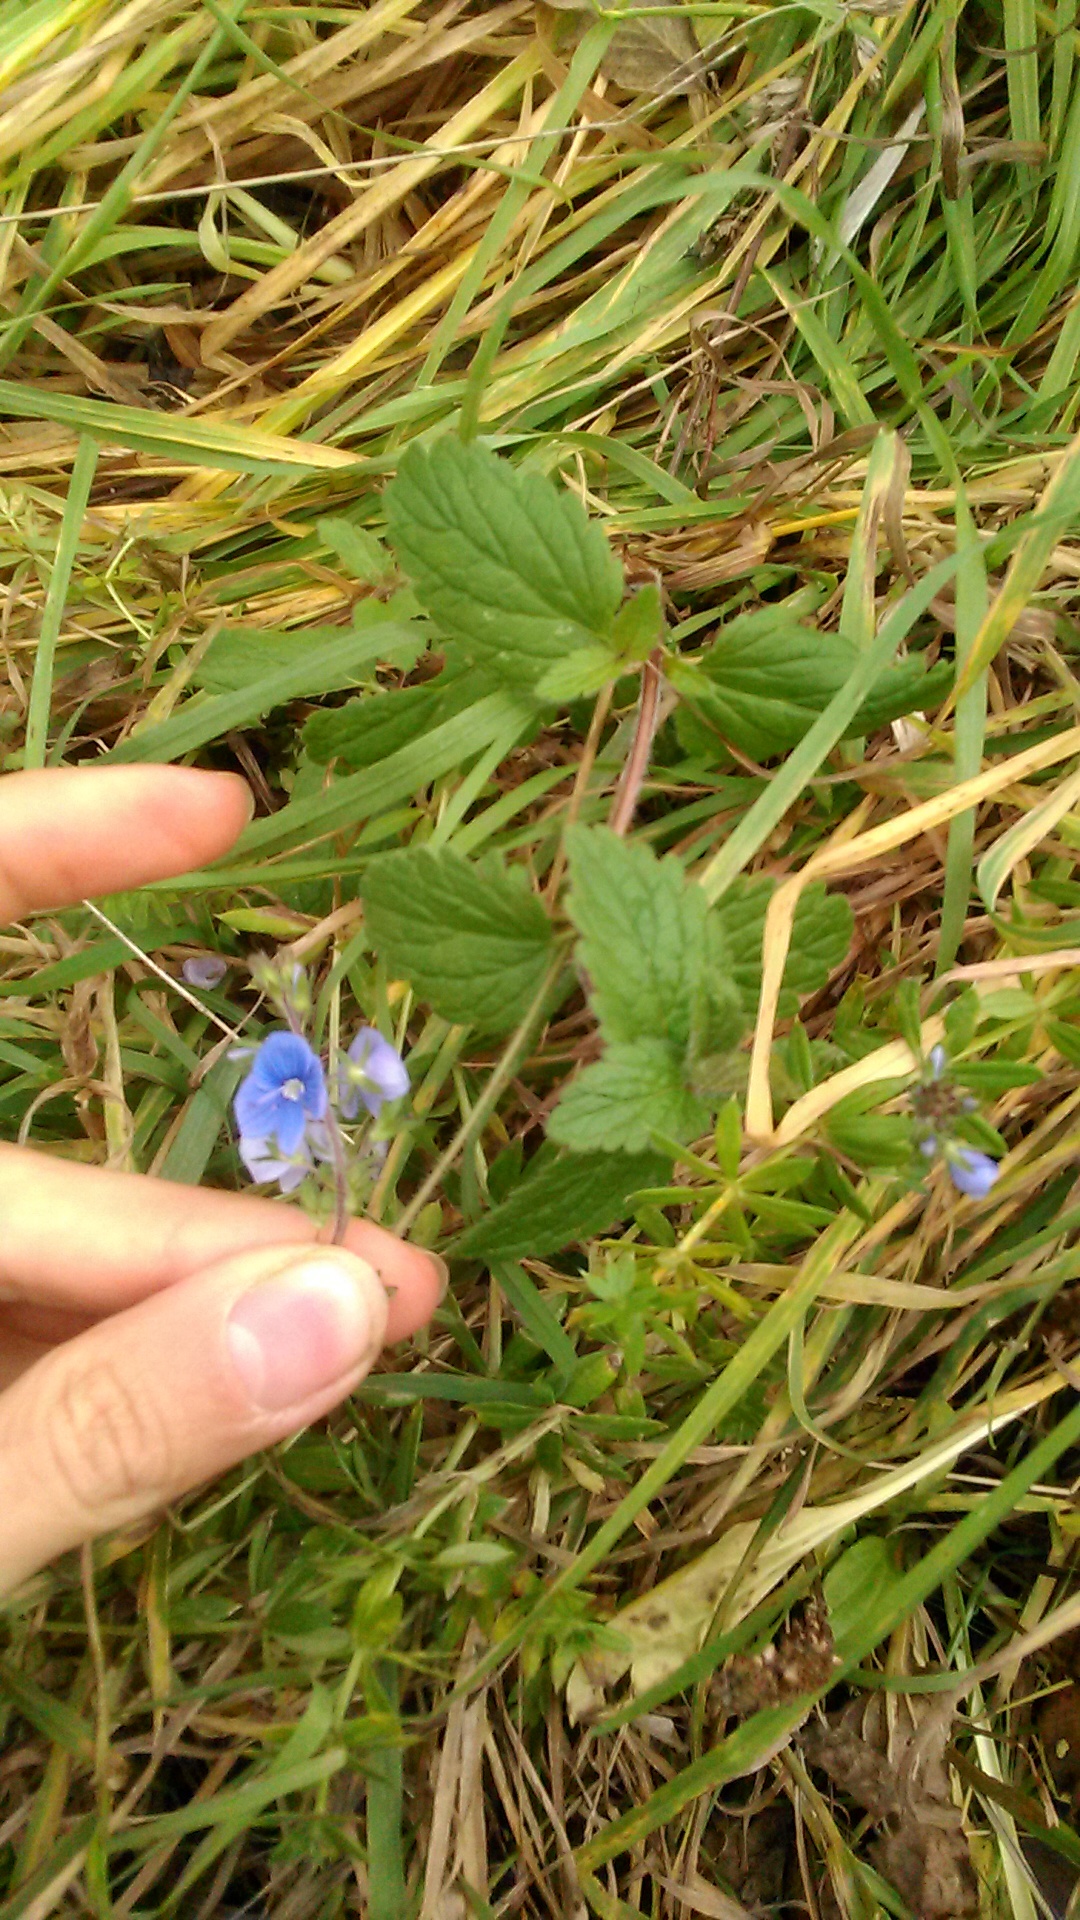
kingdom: Plantae
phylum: Tracheophyta
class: Magnoliopsida
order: Lamiales
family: Plantaginaceae
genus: Veronica
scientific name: Veronica chamaedrys
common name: Germander speedwell
